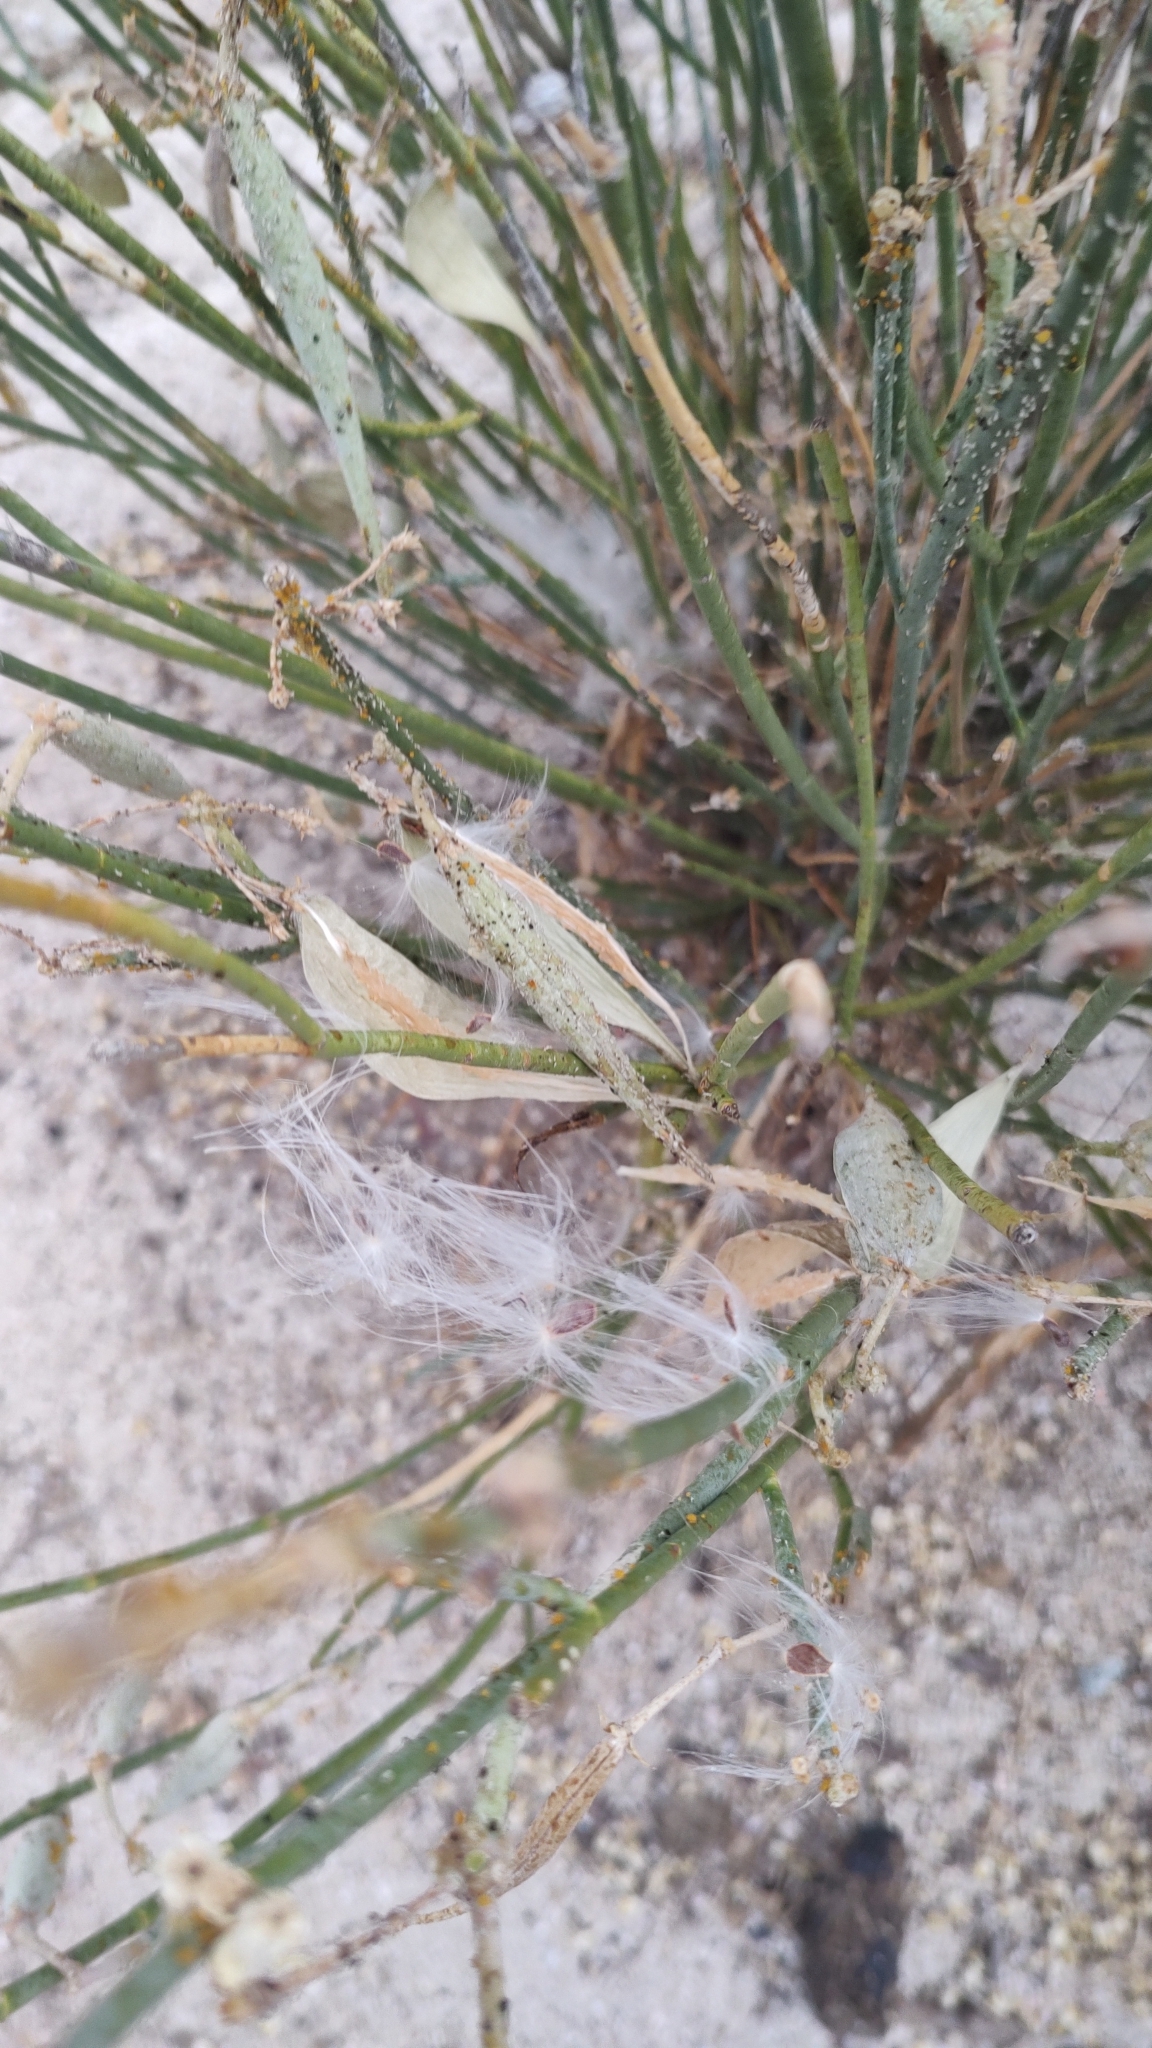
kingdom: Plantae
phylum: Tracheophyta
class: Magnoliopsida
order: Gentianales
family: Apocynaceae
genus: Asclepias
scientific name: Asclepias subulata
